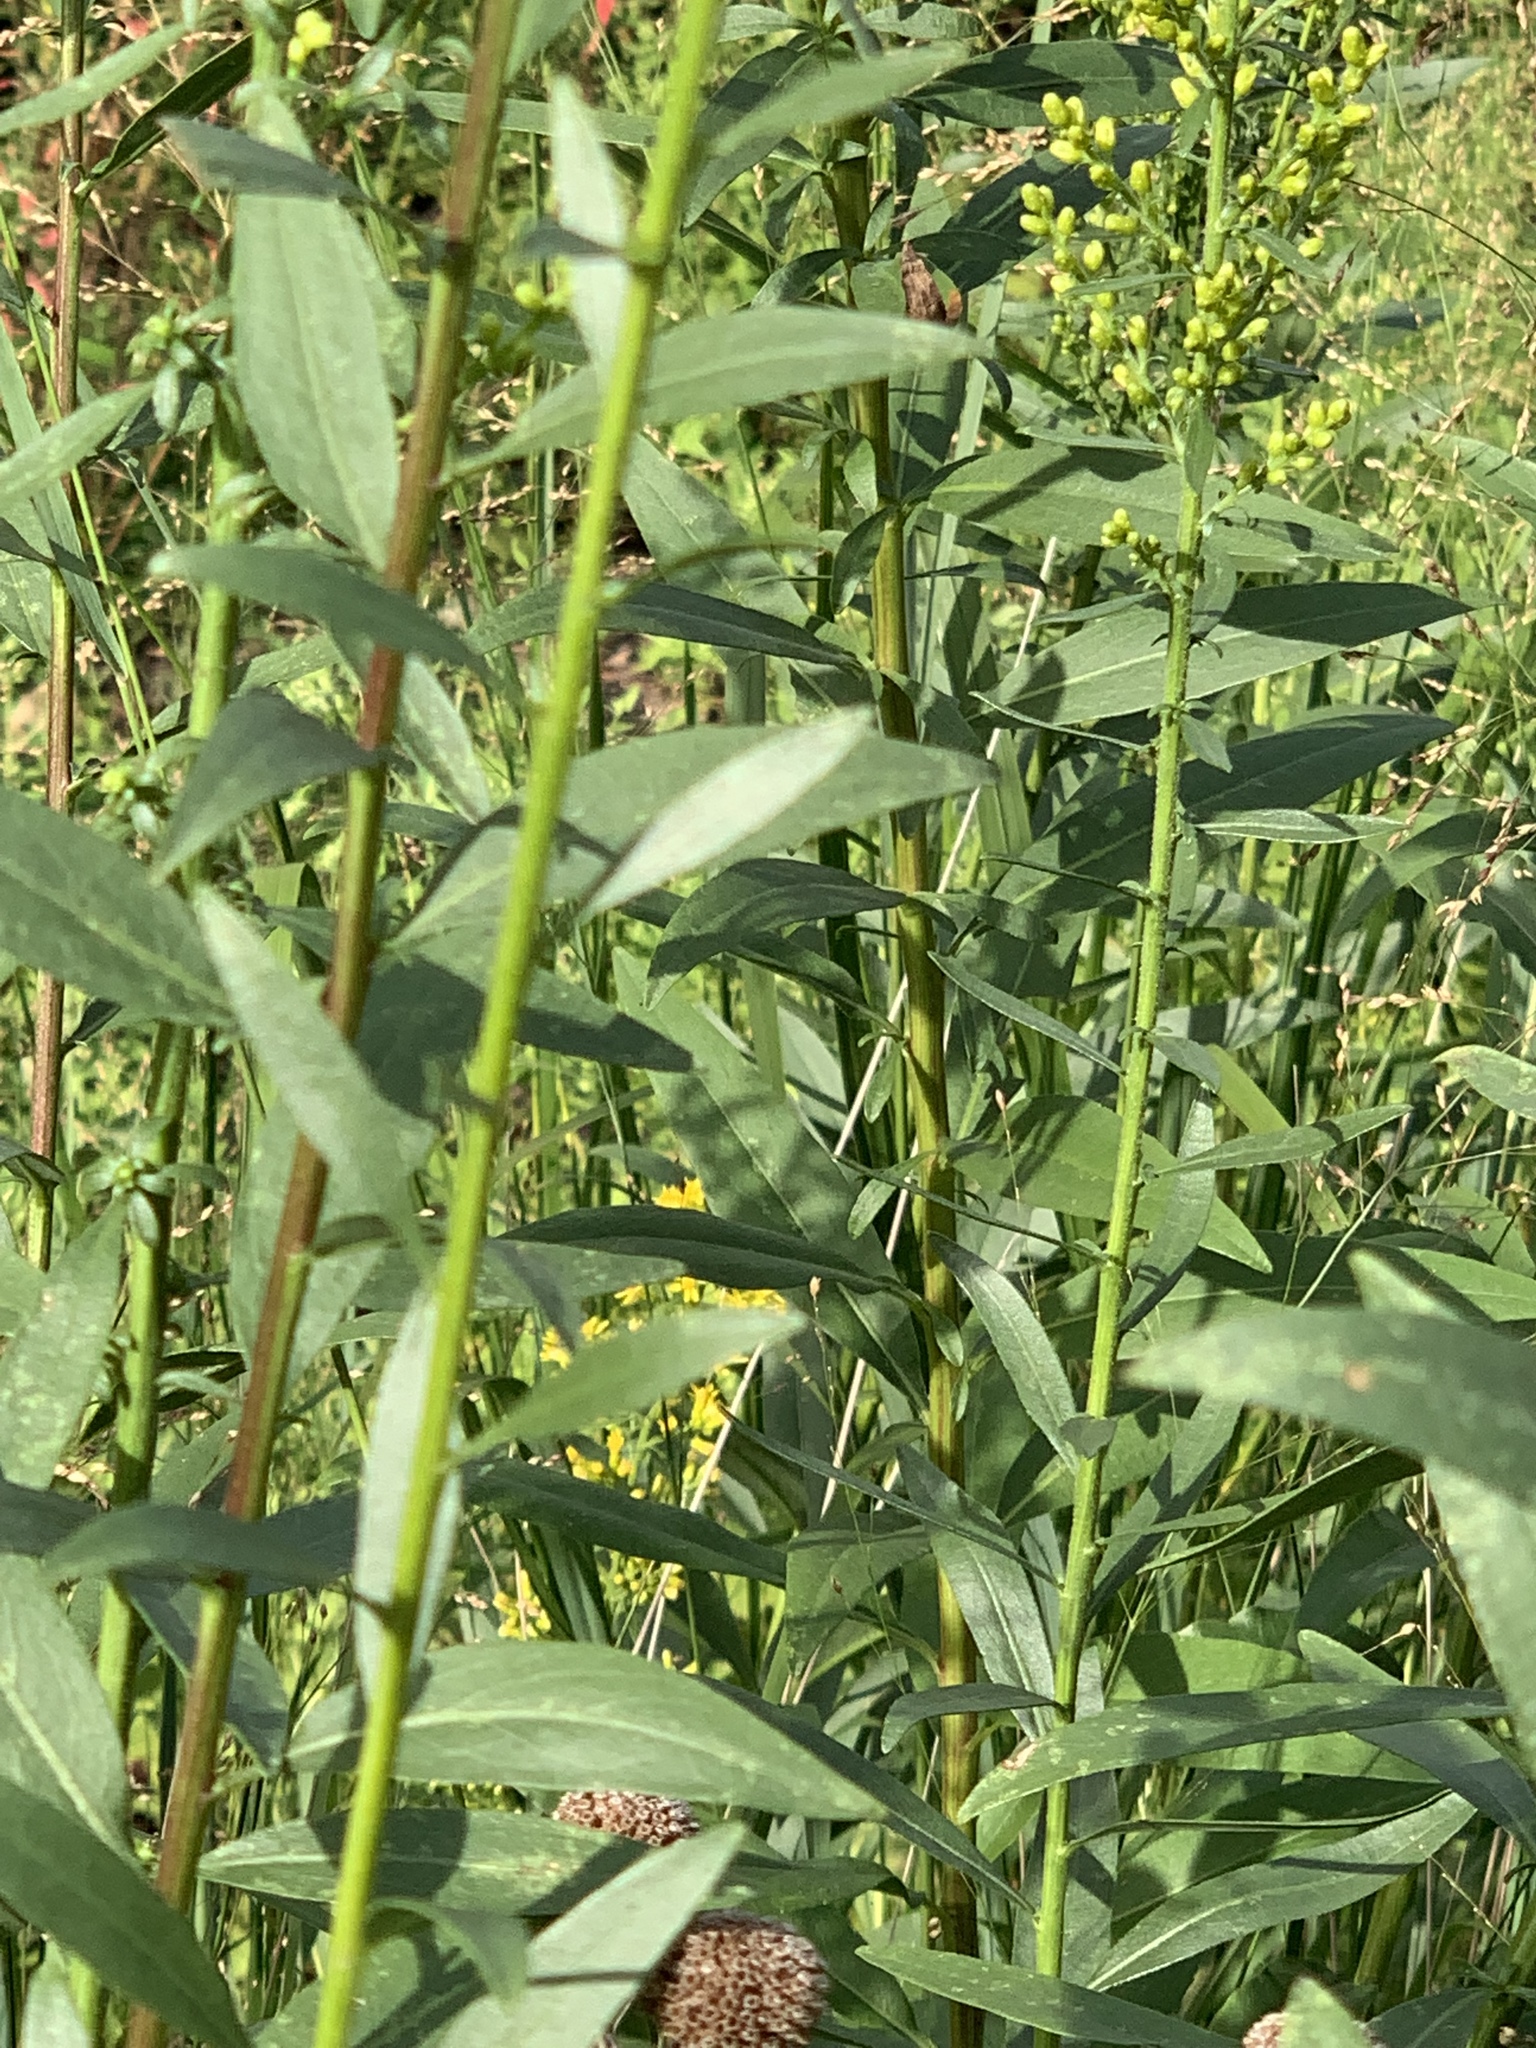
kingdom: Plantae
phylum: Tracheophyta
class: Magnoliopsida
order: Asterales
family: Asteraceae
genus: Solidago
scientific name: Solidago speciosa
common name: Showy goldenrod
